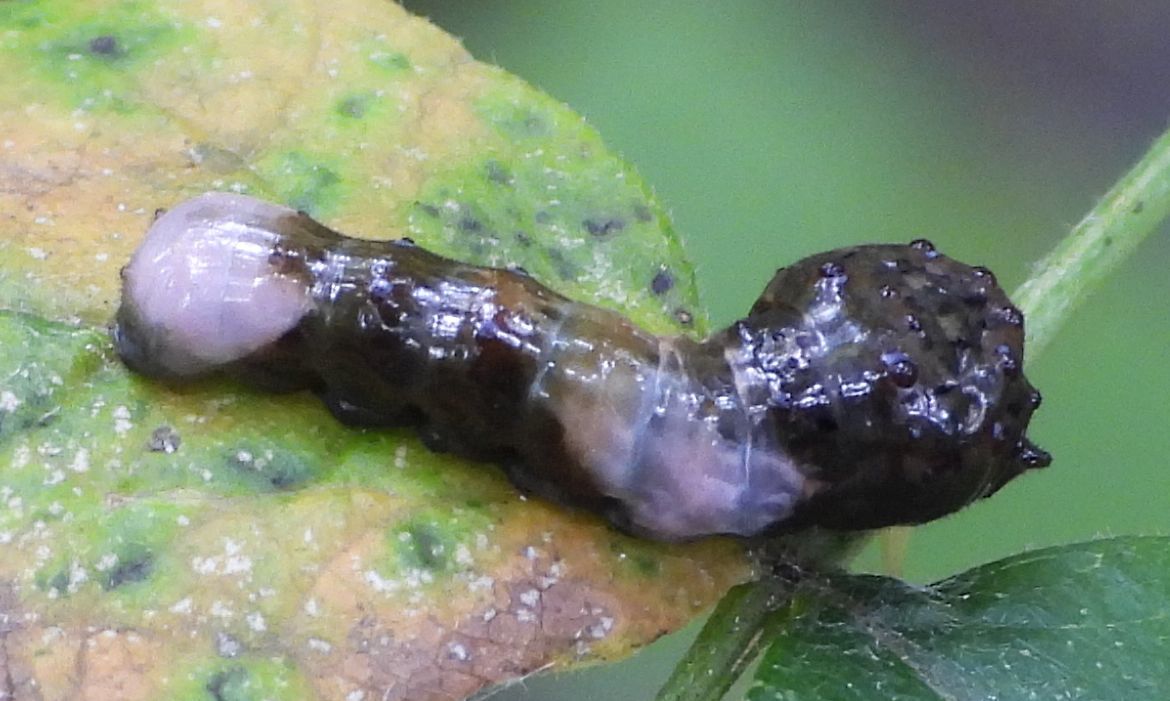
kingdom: Animalia
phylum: Arthropoda
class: Insecta
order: Lepidoptera
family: Papilionidae
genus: Papilio
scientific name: Papilio cresphontes
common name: Giant swallowtail
